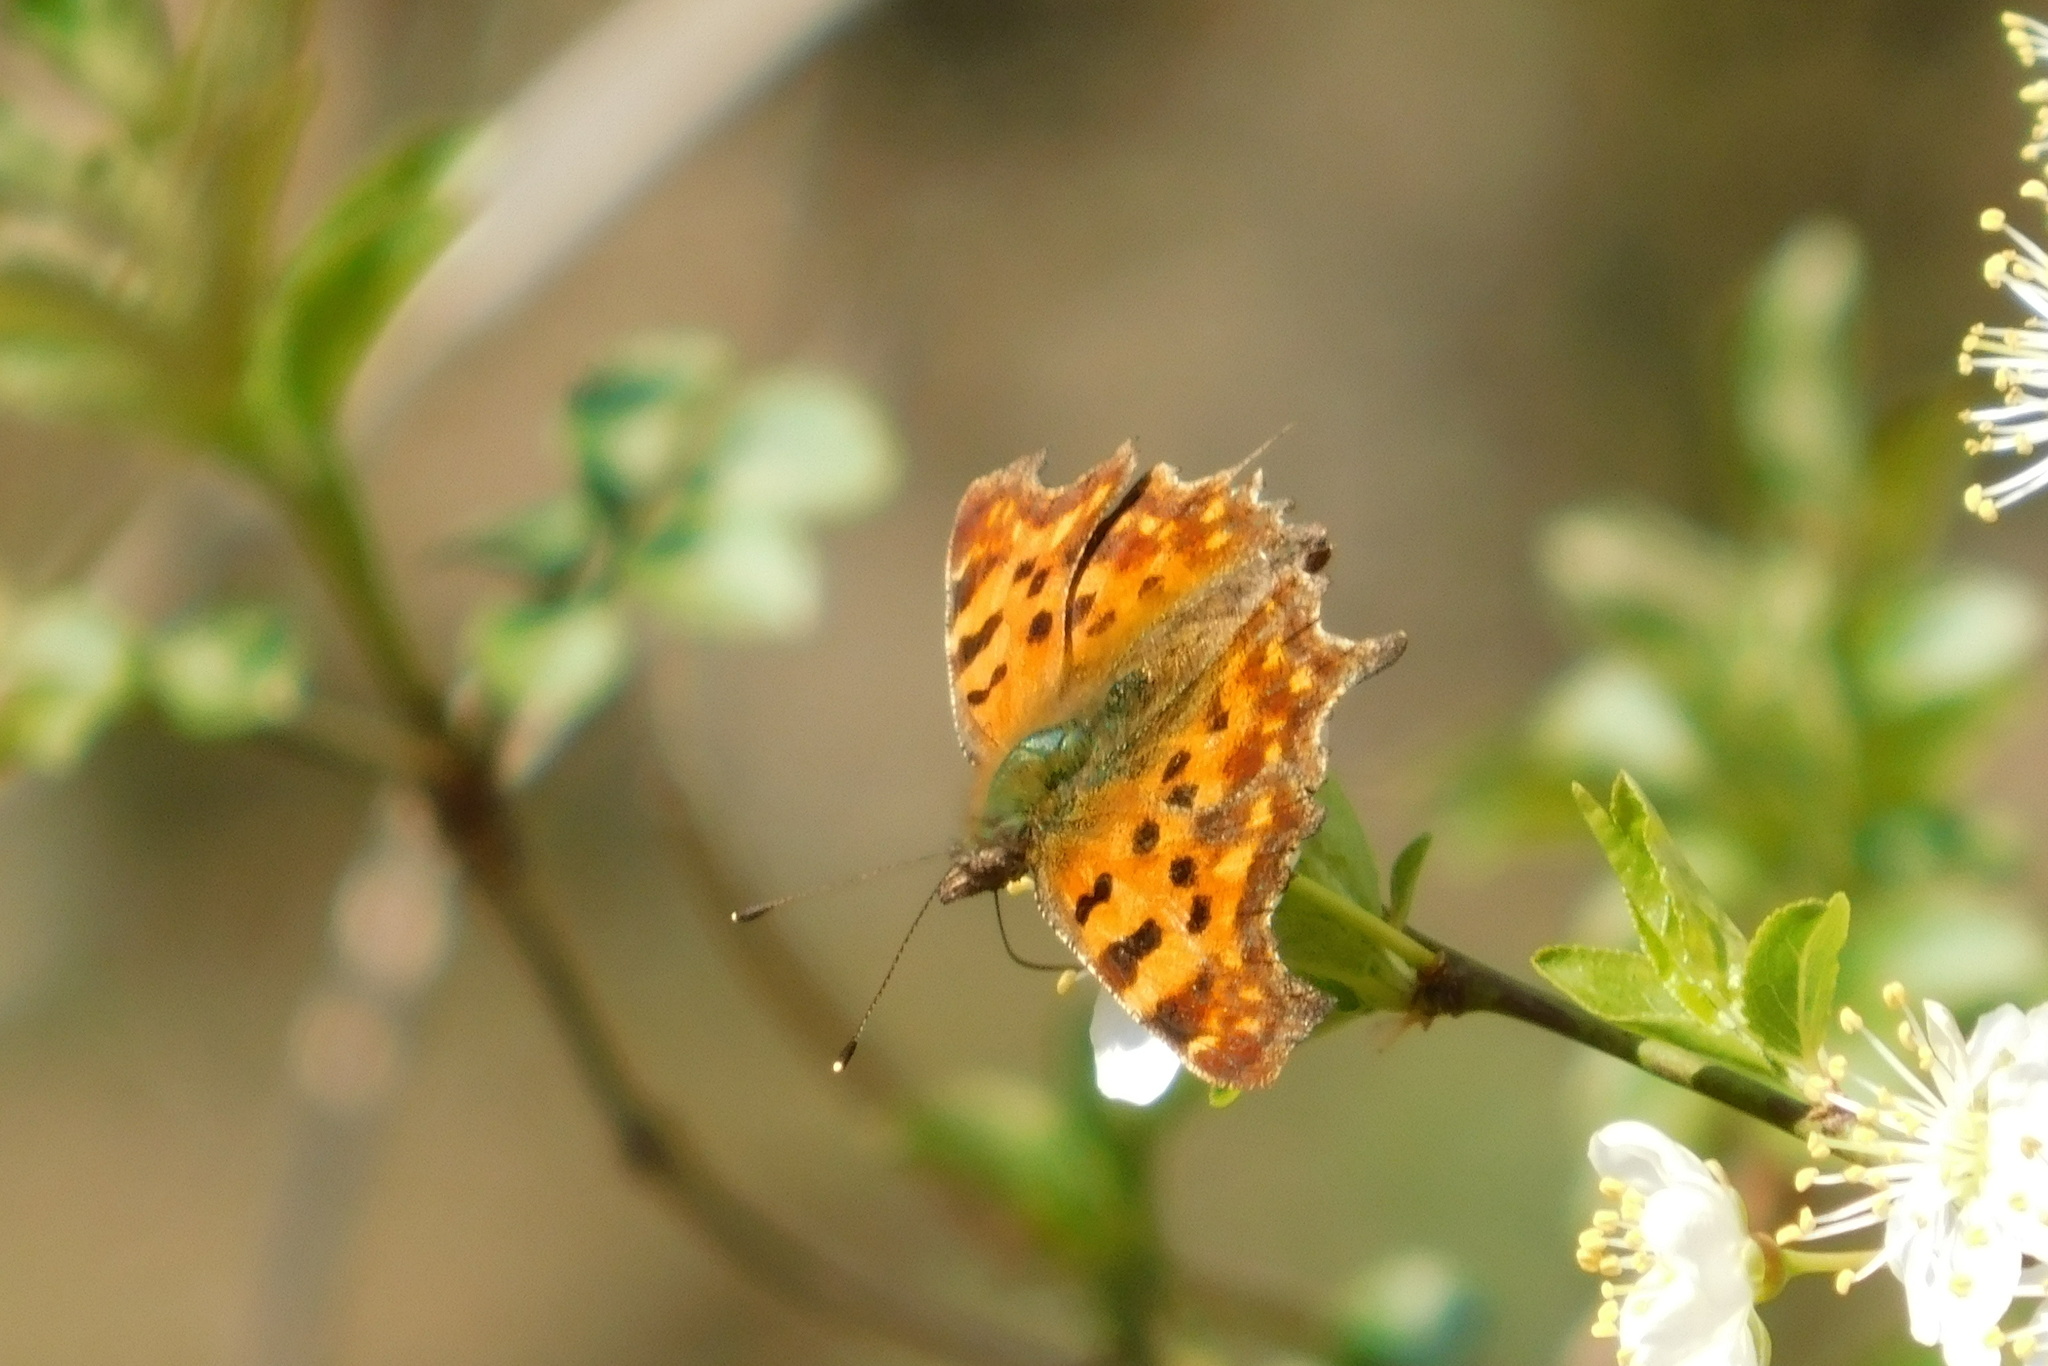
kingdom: Animalia
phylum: Arthropoda
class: Insecta
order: Lepidoptera
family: Nymphalidae
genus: Polygonia
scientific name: Polygonia c-album
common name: Comma
